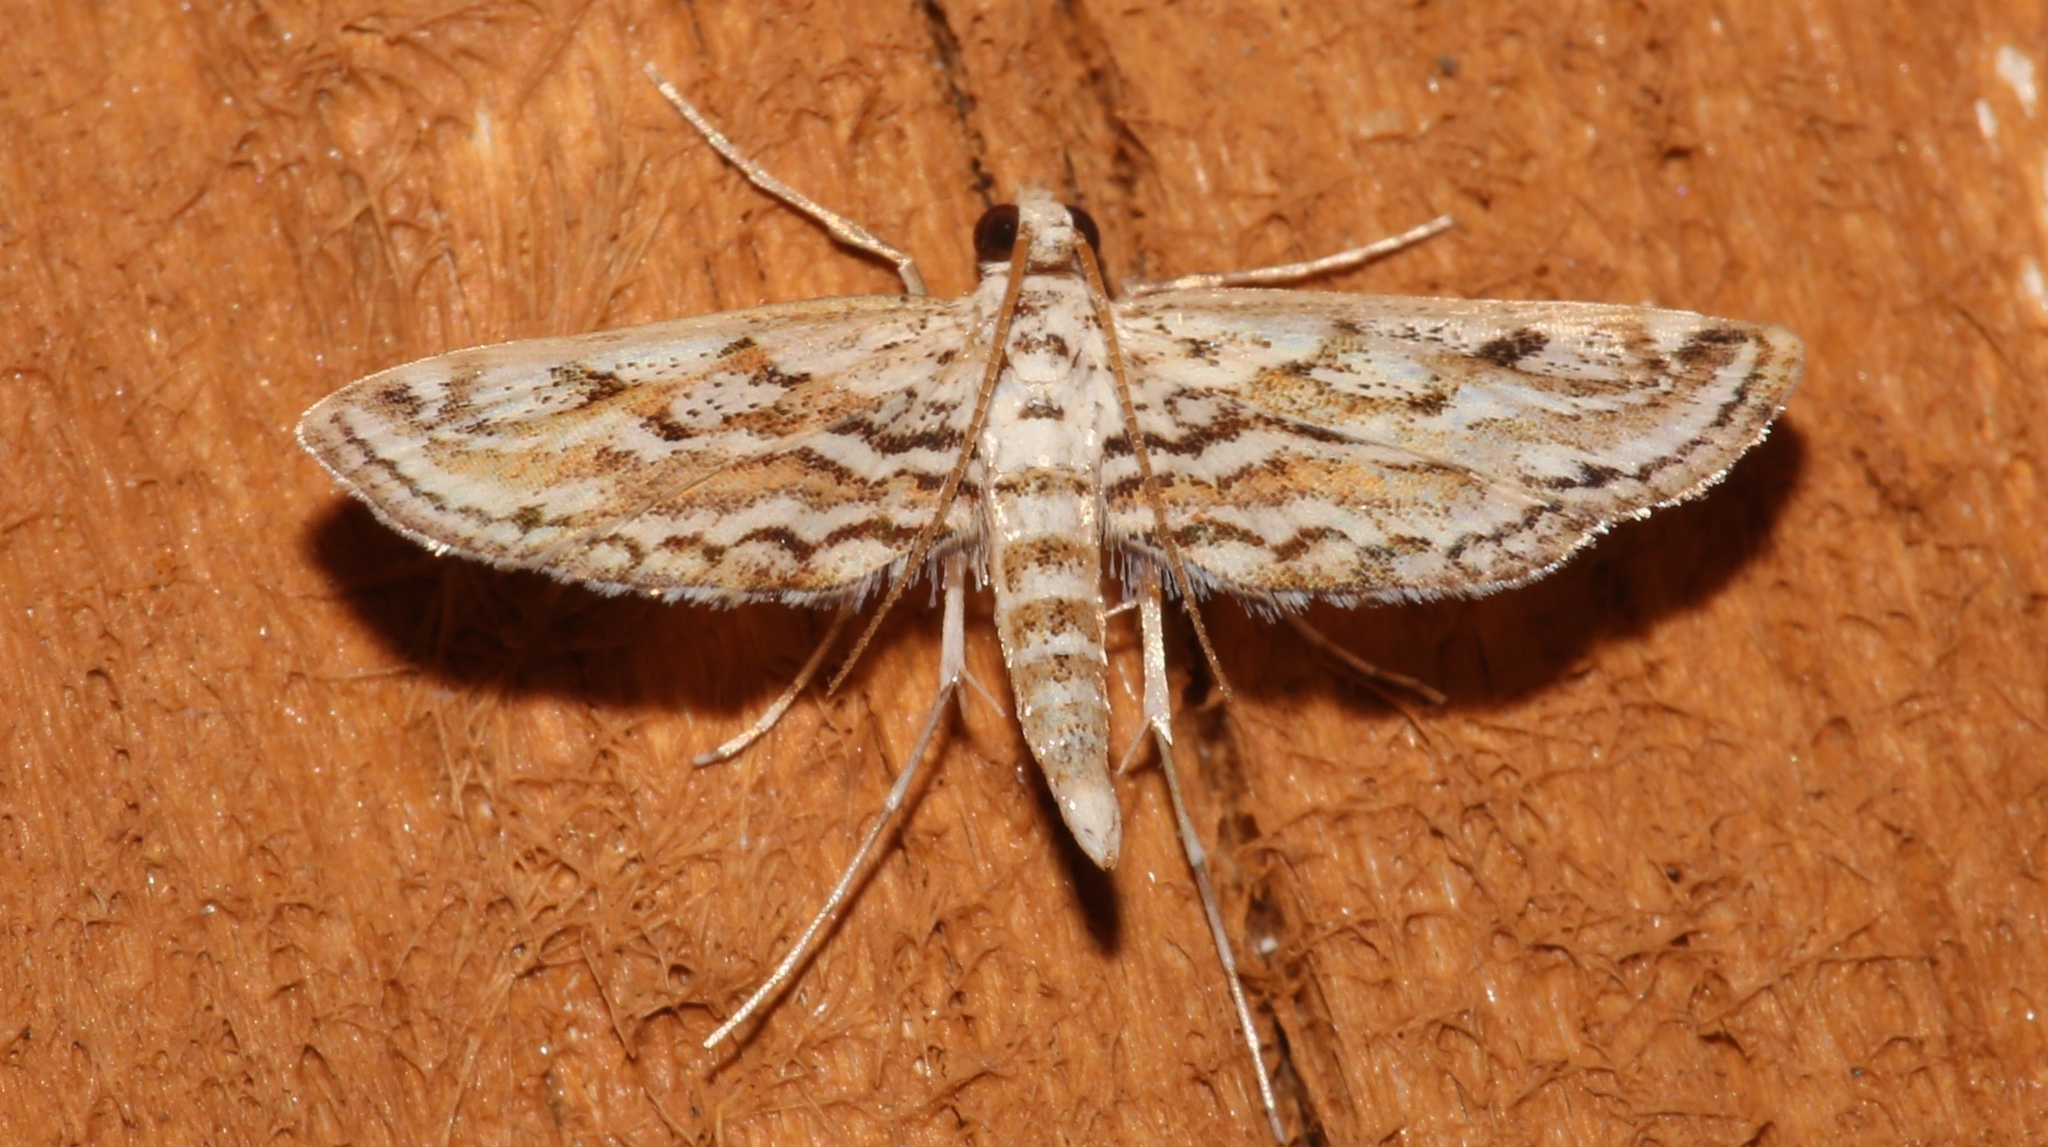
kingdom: Animalia
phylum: Arthropoda
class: Insecta
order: Lepidoptera
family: Crambidae
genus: Parapoynx
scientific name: Parapoynx allionealis
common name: Bladderwort casemaker
